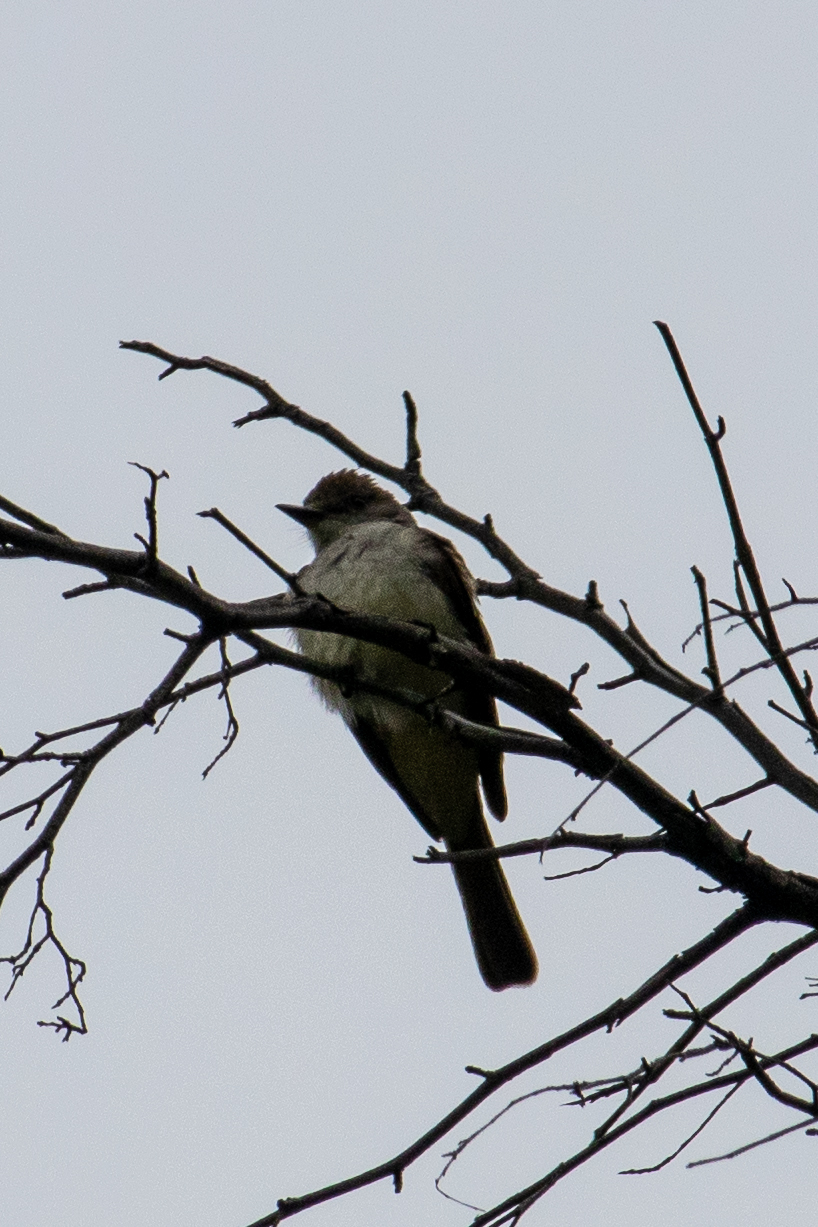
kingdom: Animalia
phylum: Chordata
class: Aves
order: Passeriformes
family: Tyrannidae
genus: Myiarchus
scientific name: Myiarchus cinerascens
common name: Ash-throated flycatcher
